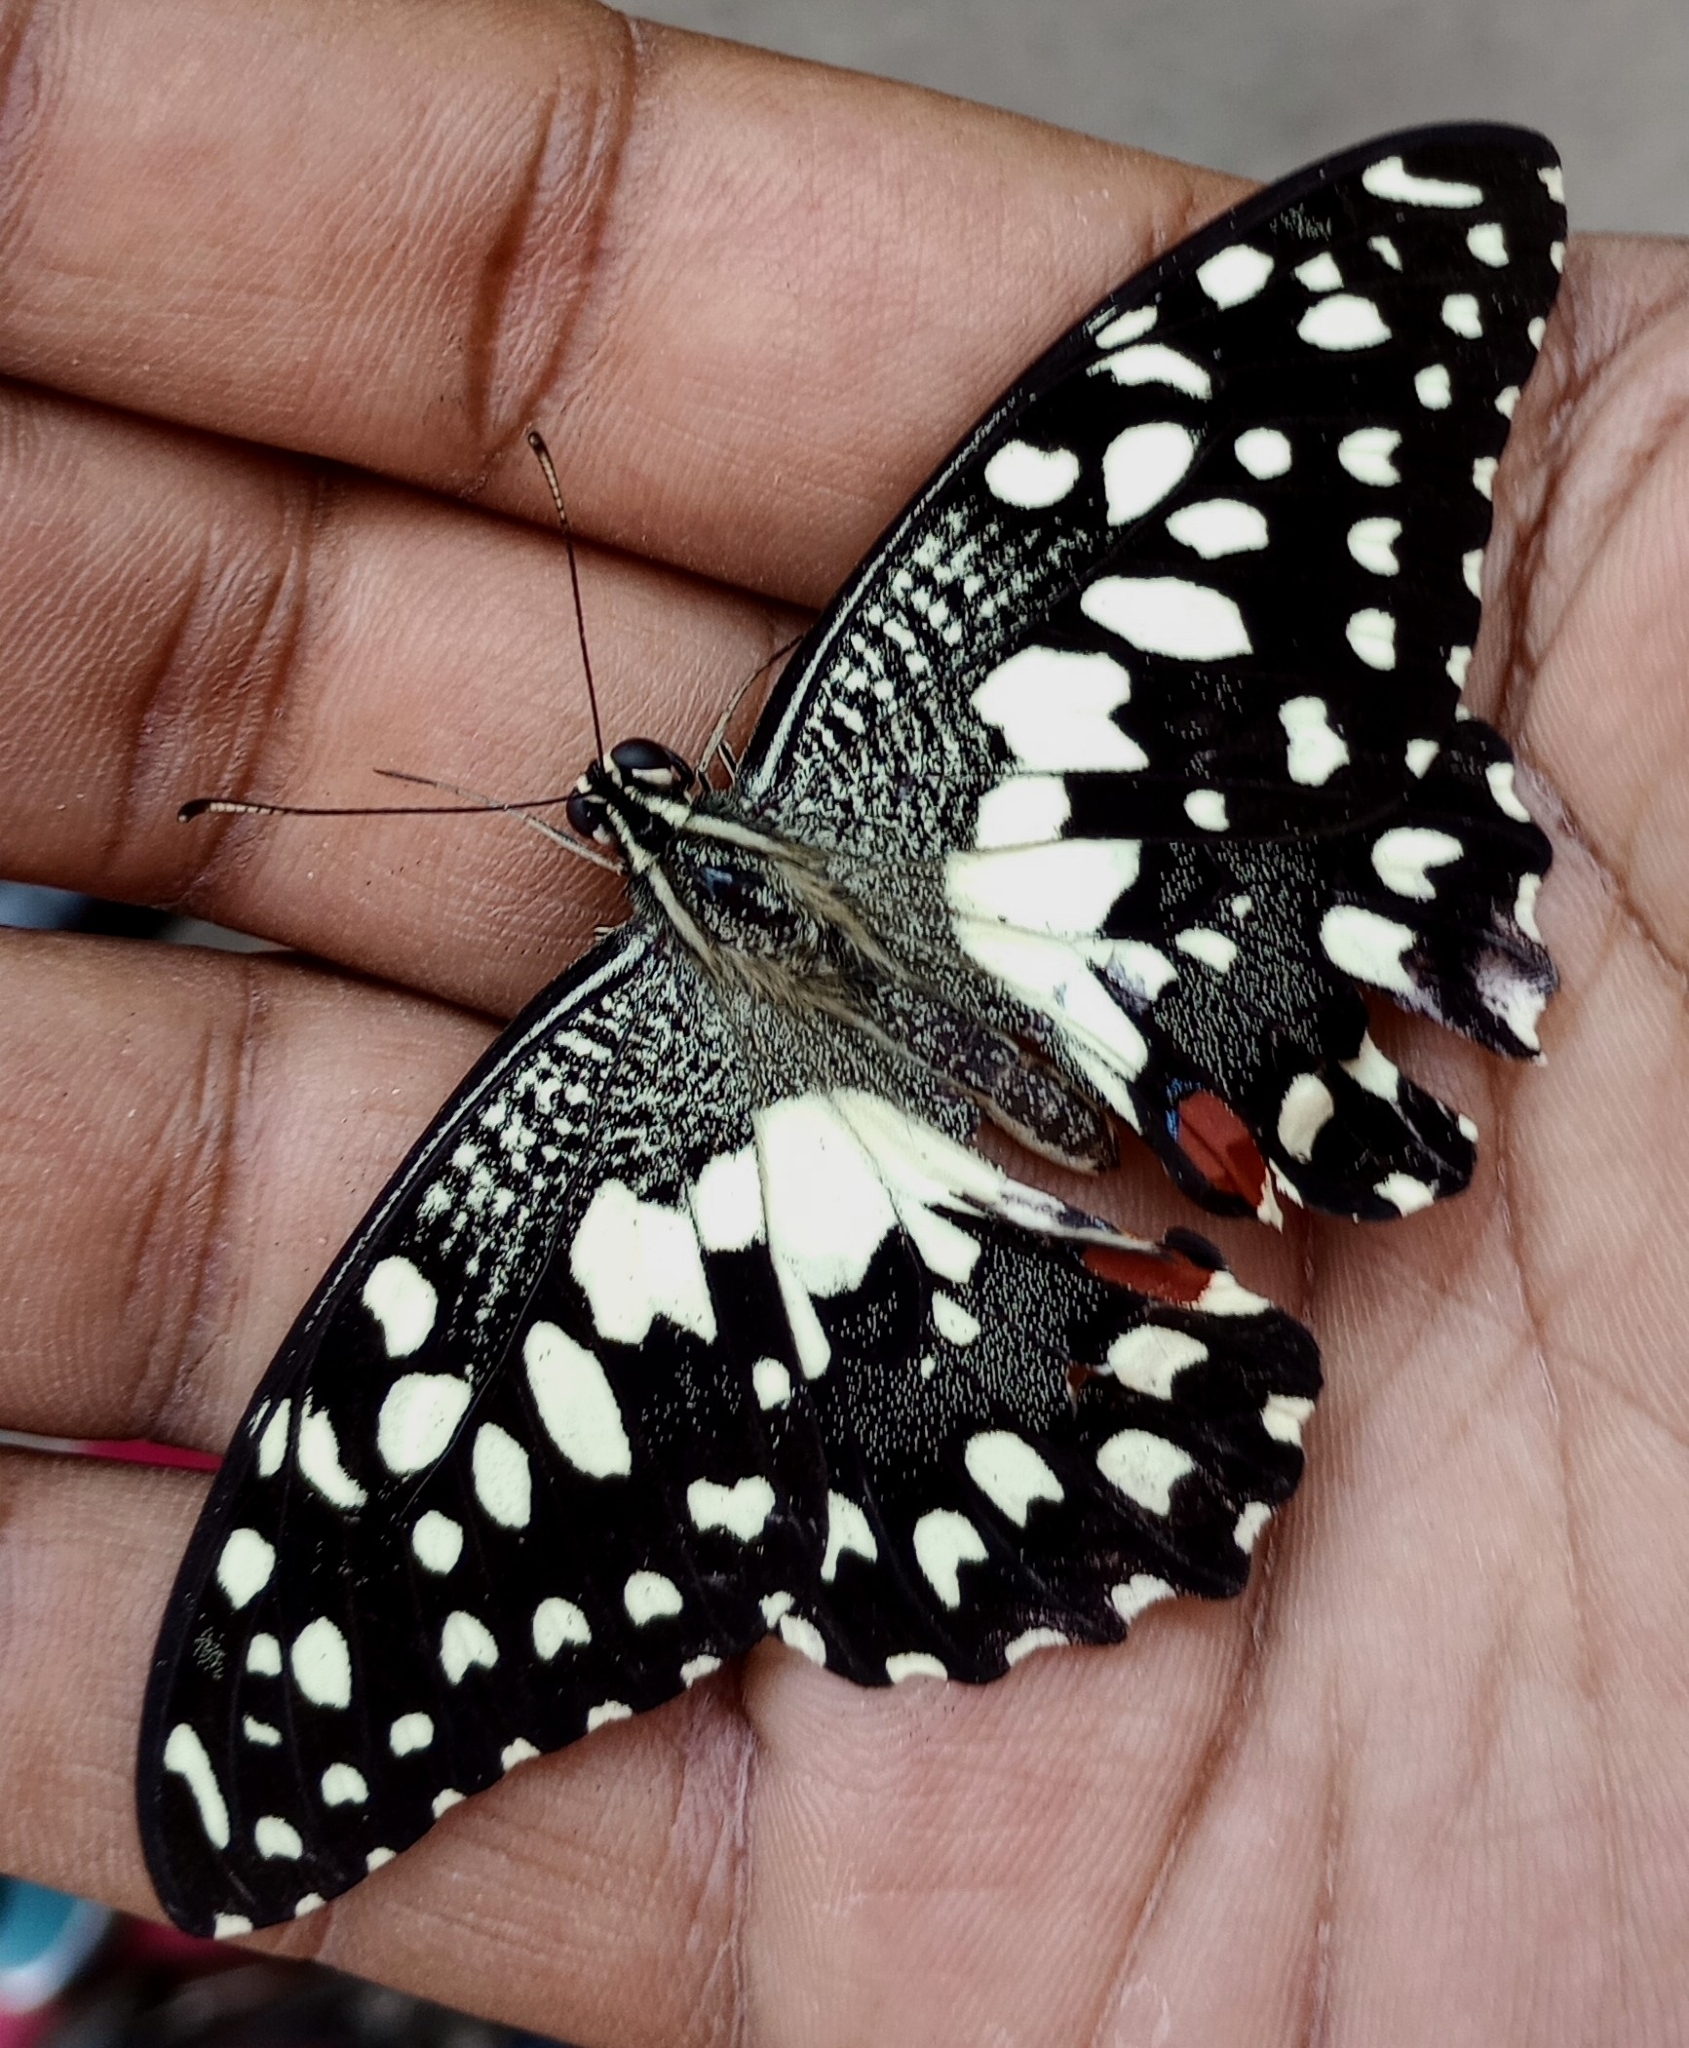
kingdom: Animalia
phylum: Arthropoda
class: Insecta
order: Lepidoptera
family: Papilionidae
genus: Papilio
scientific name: Papilio demoleus
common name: Lime butterfly
